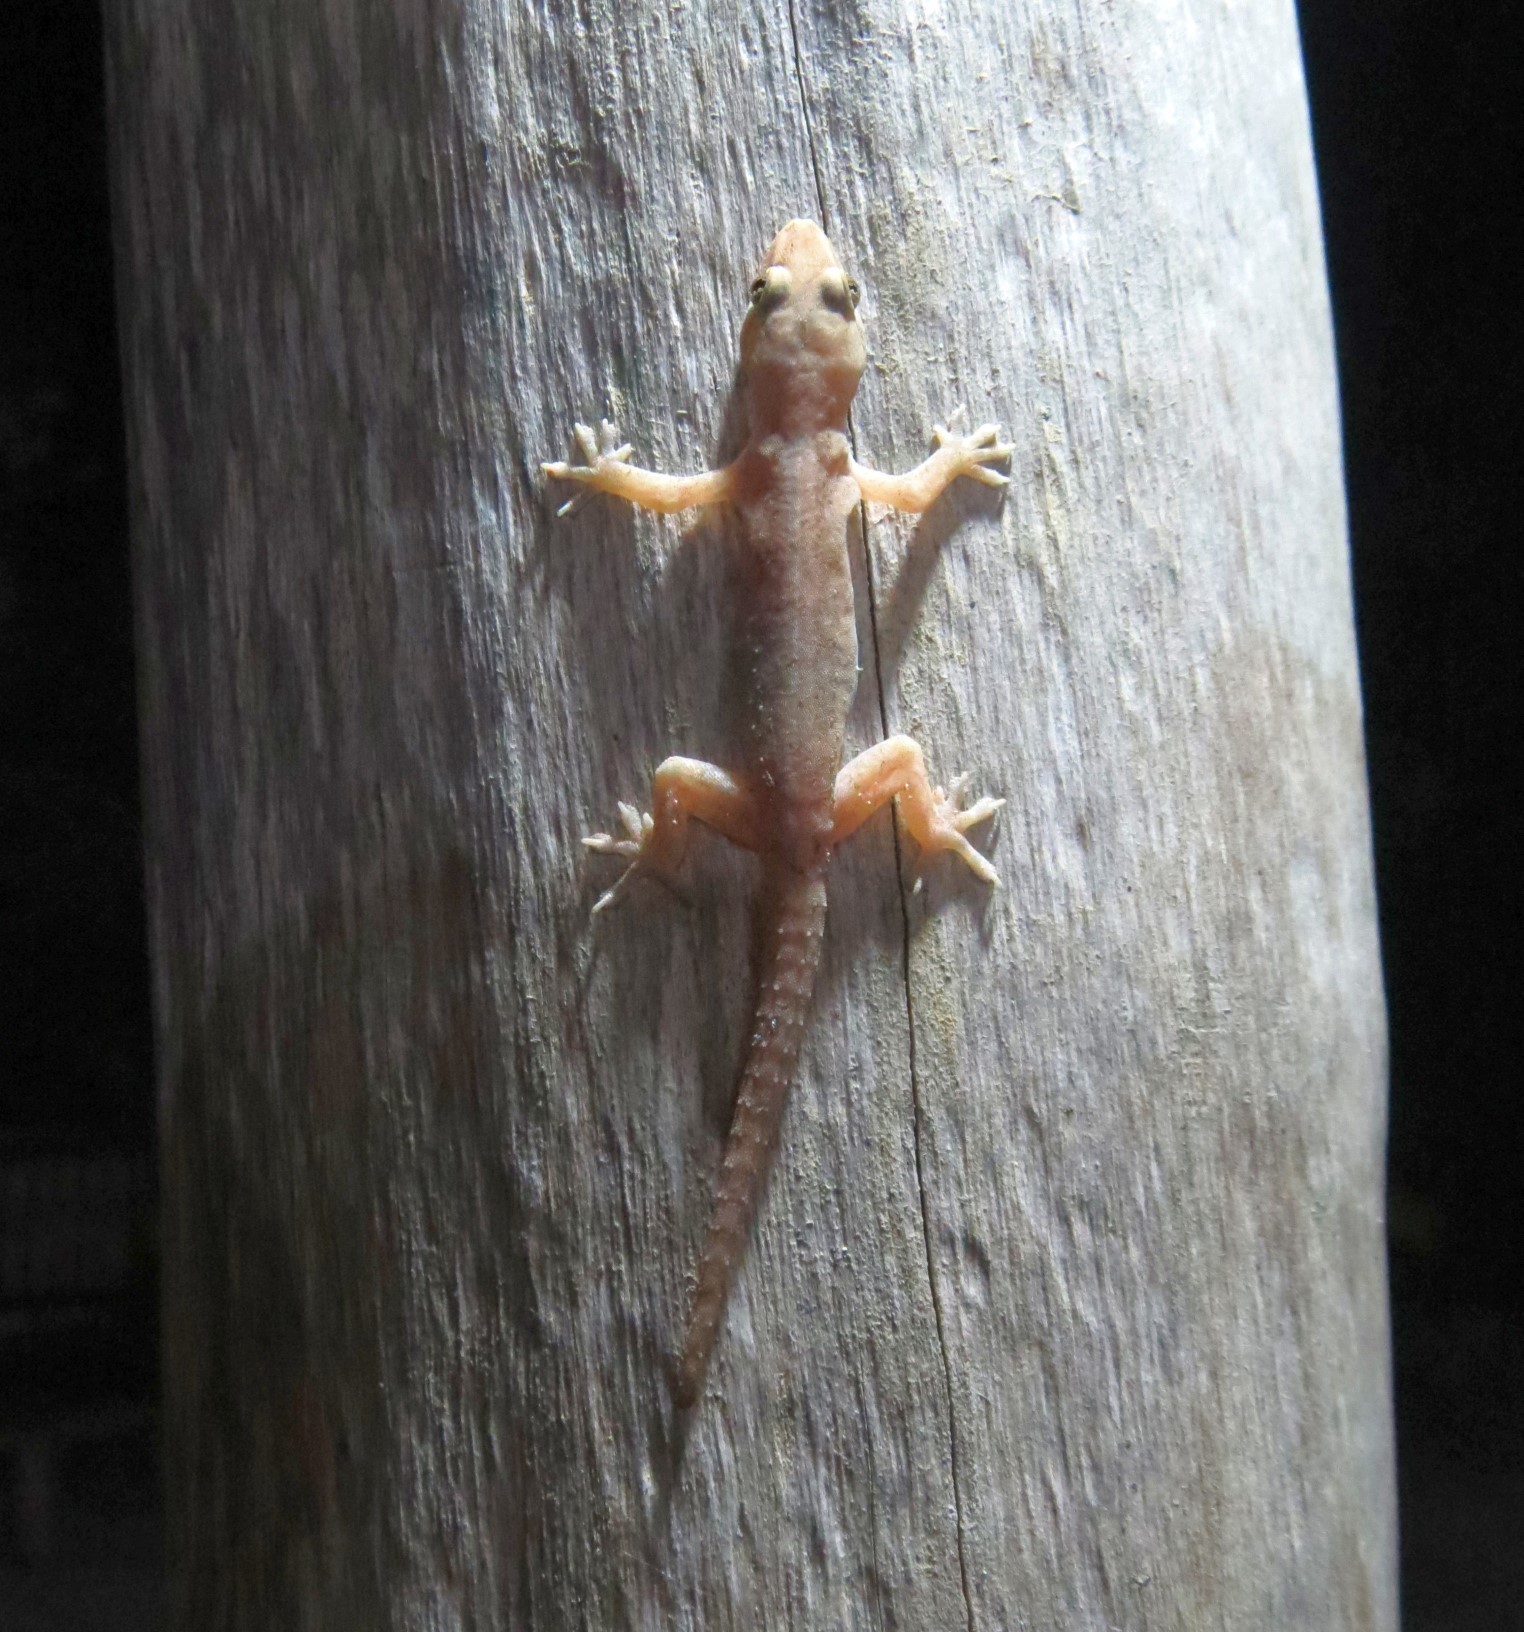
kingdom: Animalia
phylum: Chordata
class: Squamata
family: Gekkonidae
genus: Hemidactylus
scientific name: Hemidactylus frenatus
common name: Common house gecko
